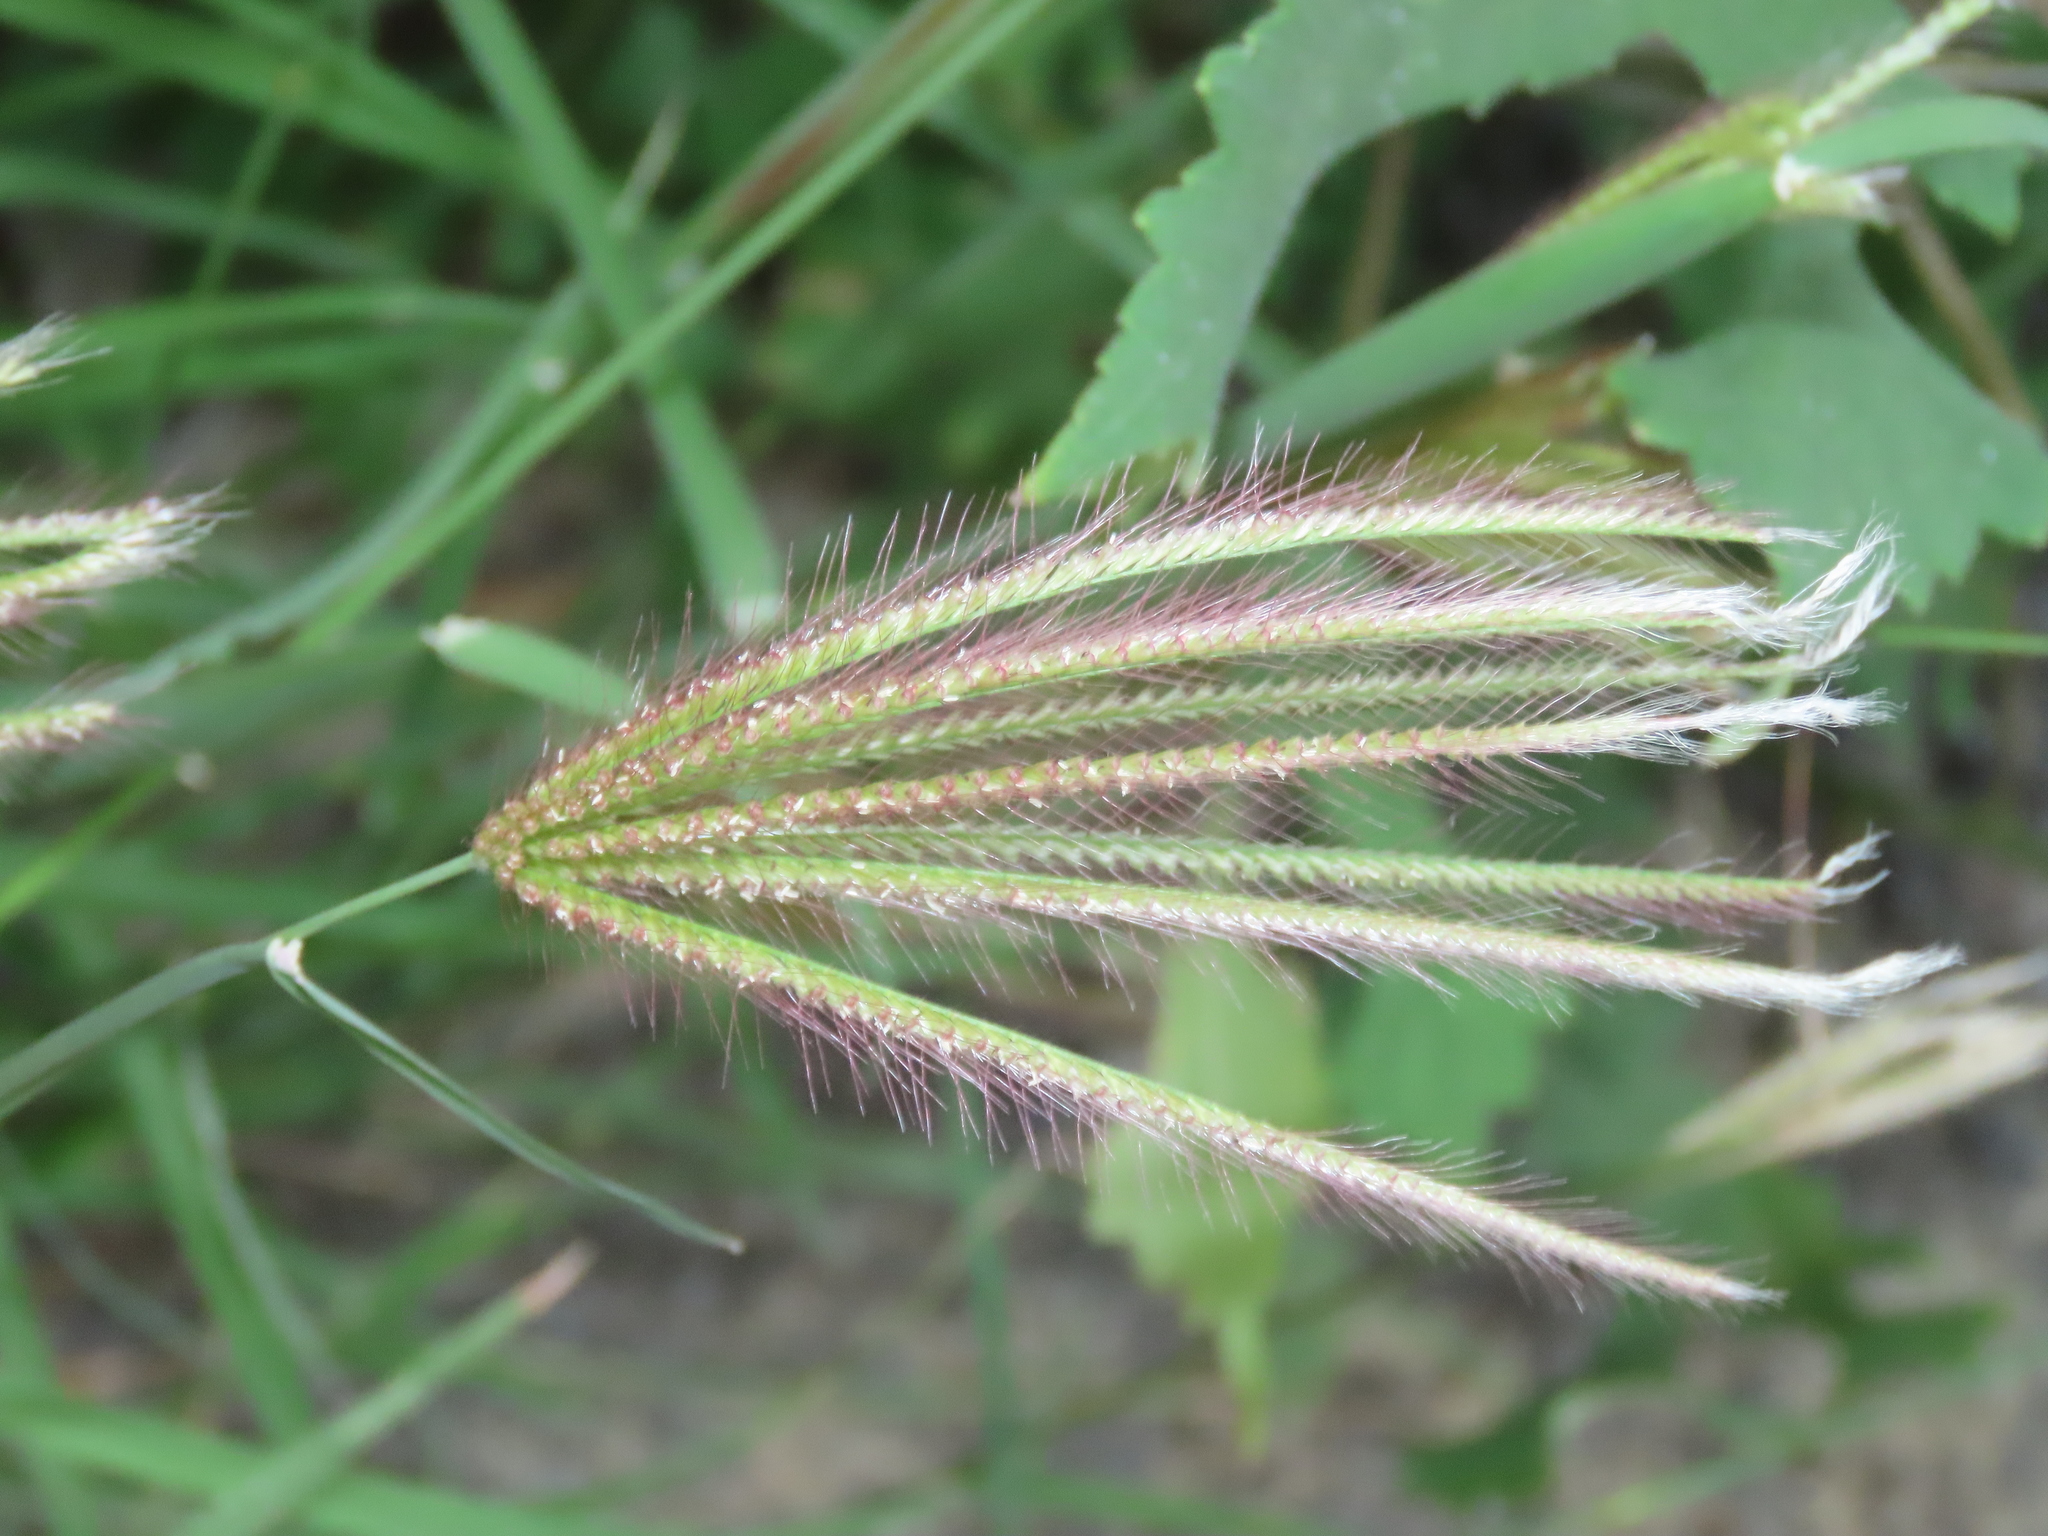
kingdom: Plantae
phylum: Tracheophyta
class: Liliopsida
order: Poales
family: Poaceae
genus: Chloris
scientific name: Chloris barbata
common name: Swollen fingergrass
